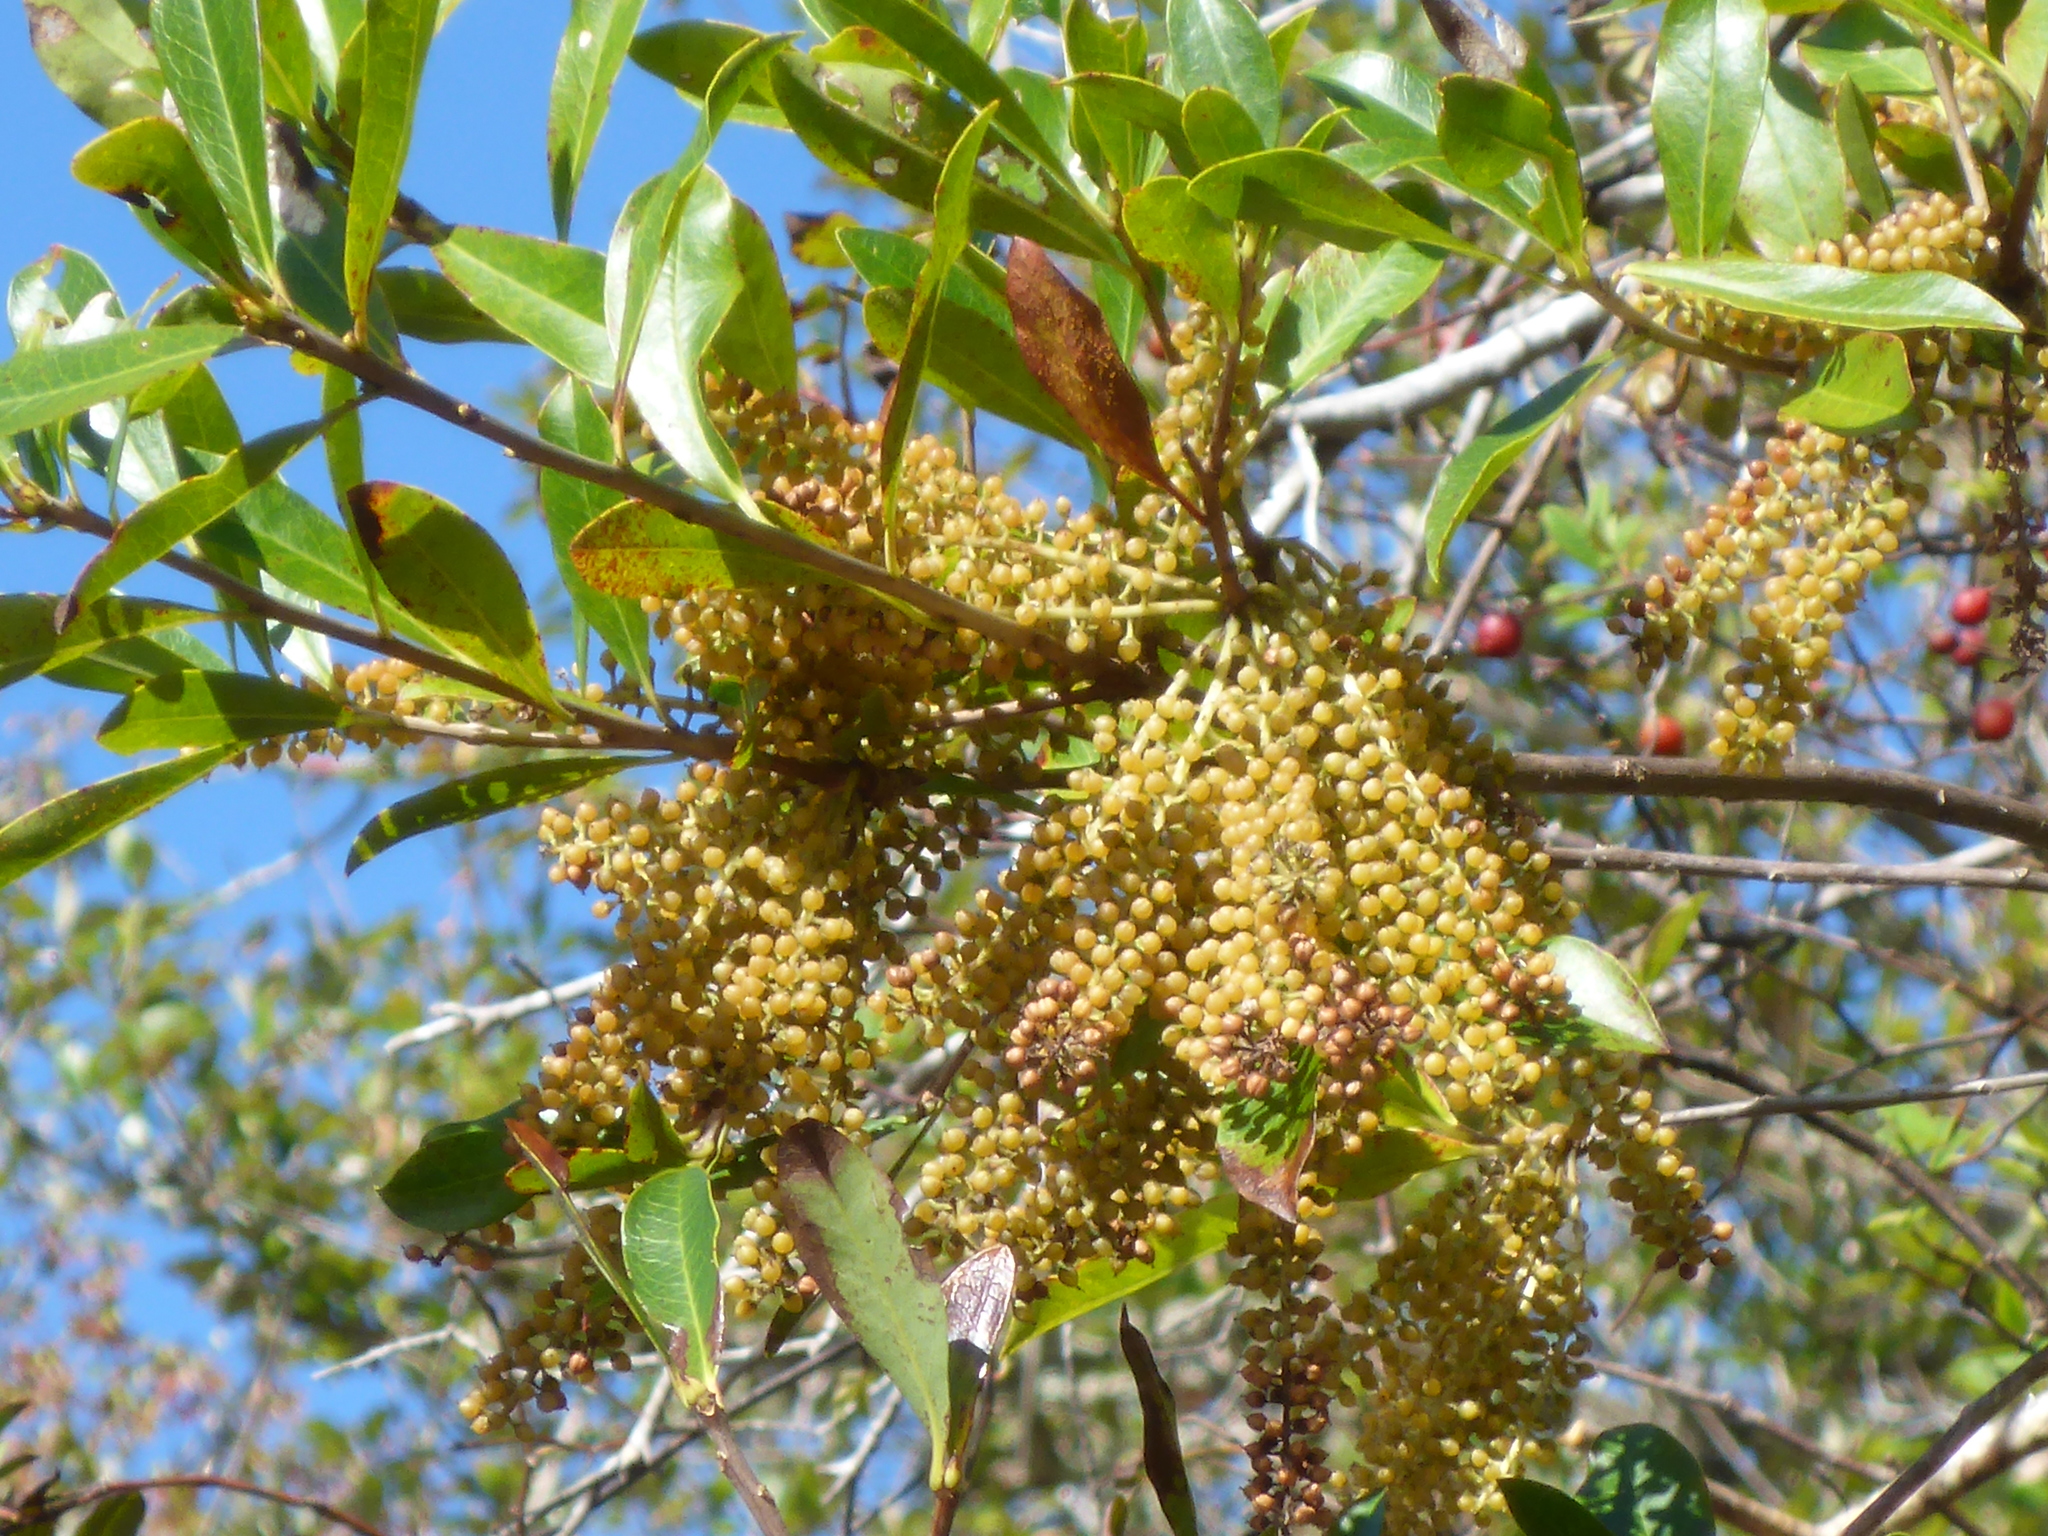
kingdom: Plantae
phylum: Tracheophyta
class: Magnoliopsida
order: Ericales
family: Cyrillaceae
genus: Cyrilla
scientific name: Cyrilla racemiflora
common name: Black titi
